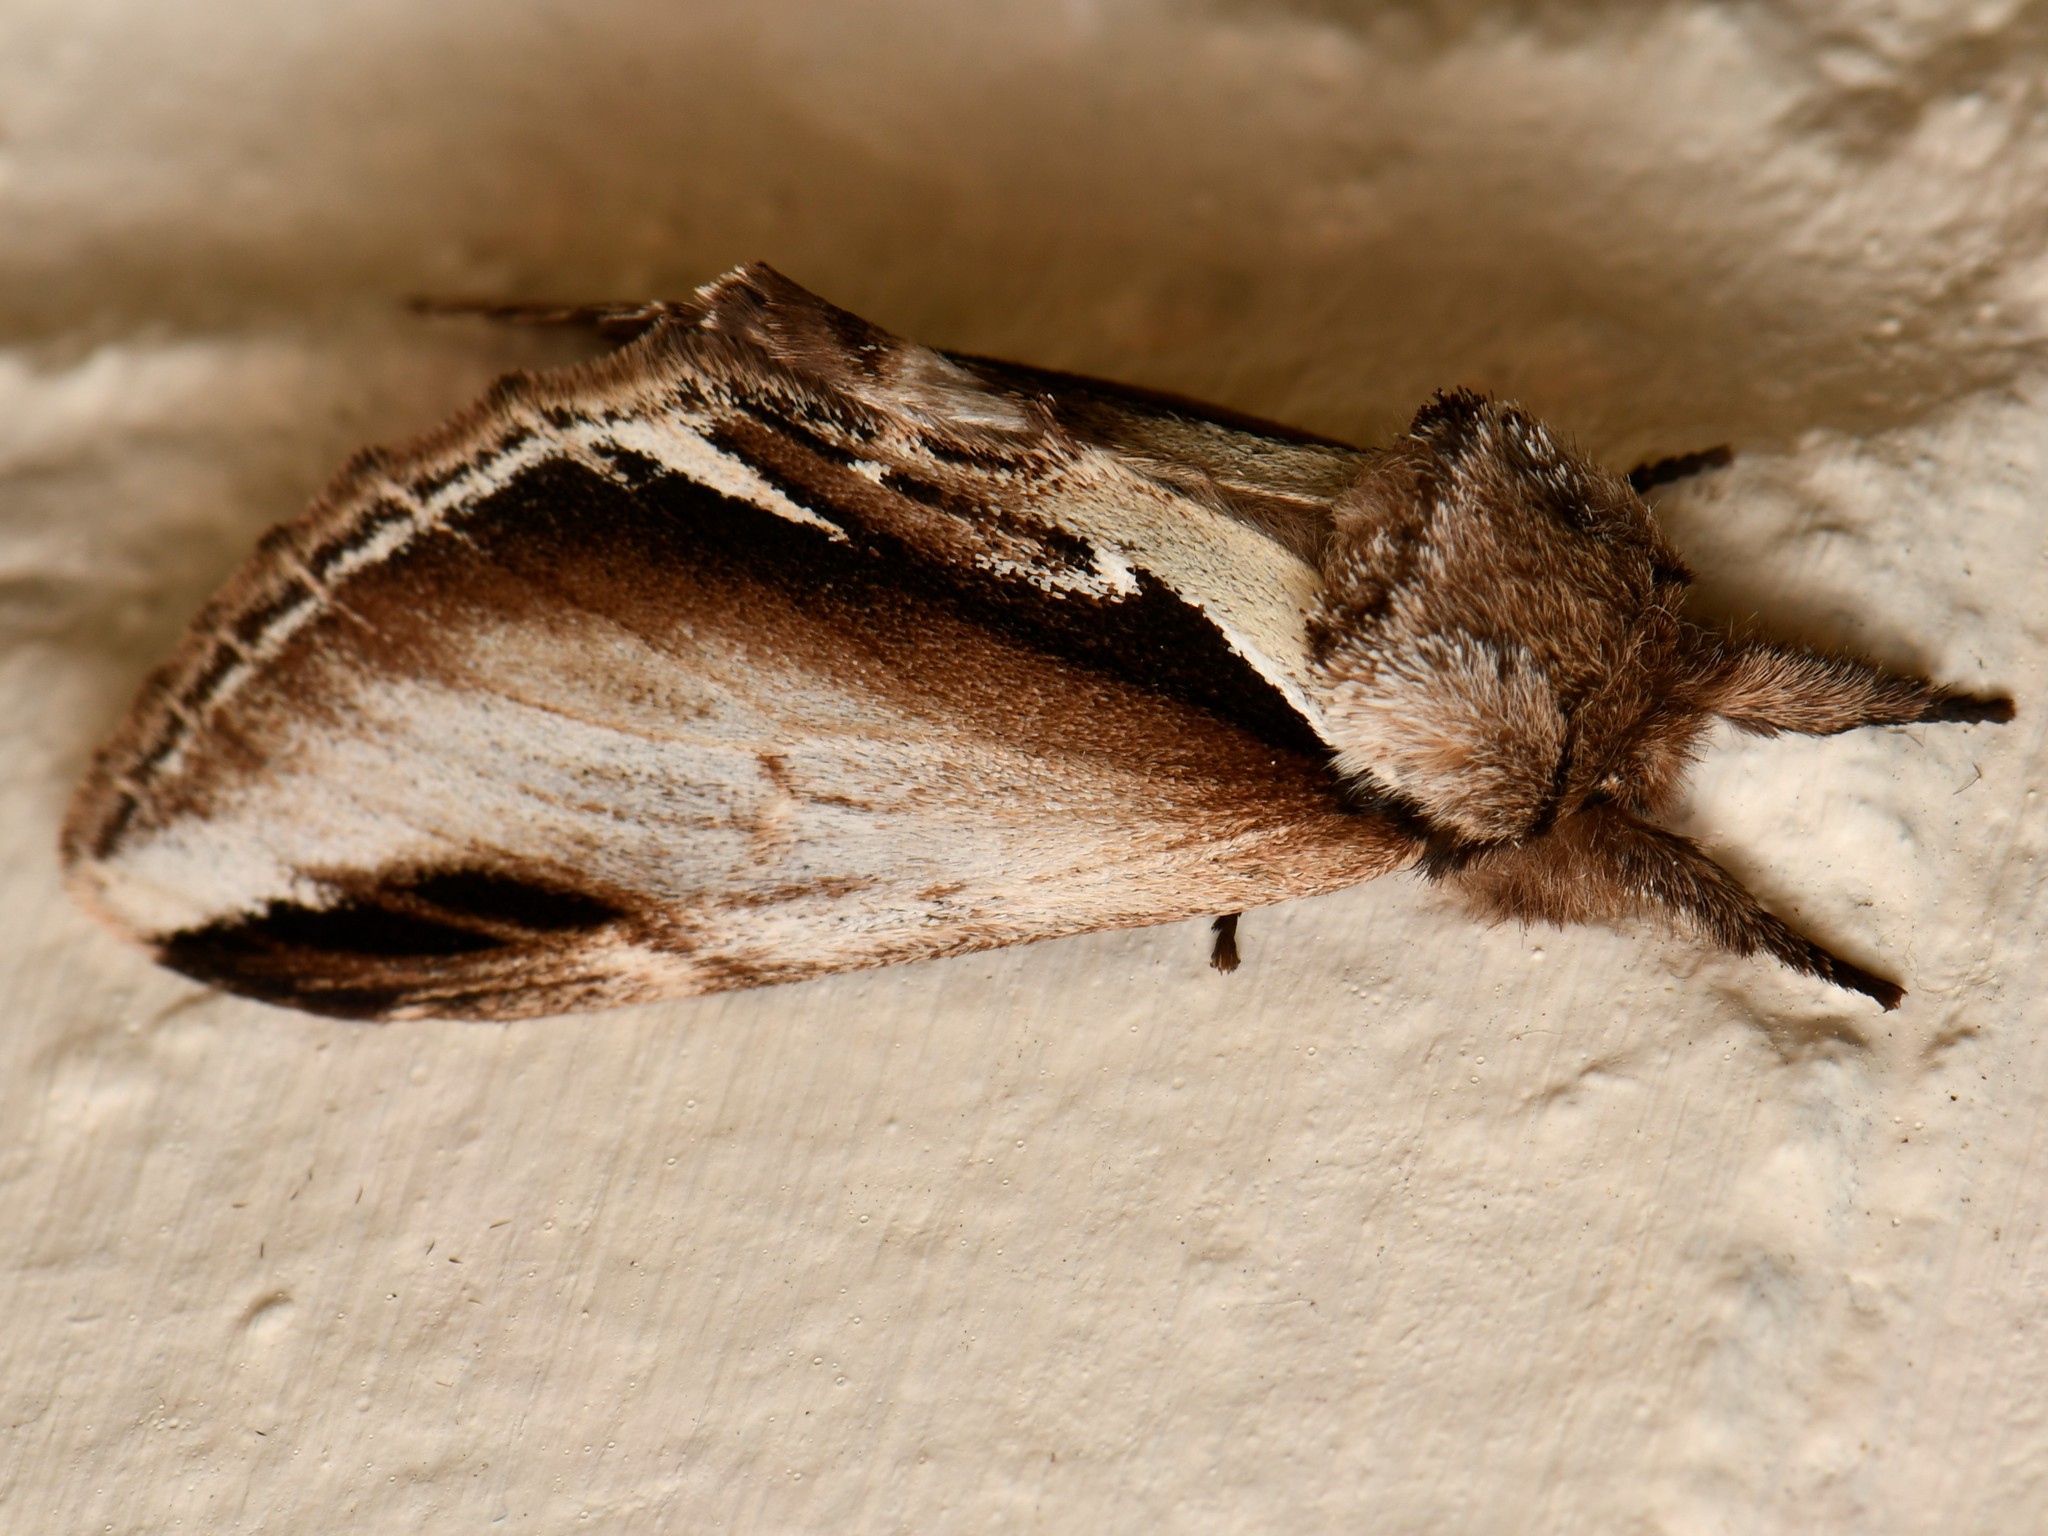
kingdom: Animalia
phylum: Arthropoda
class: Insecta
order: Lepidoptera
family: Notodontidae
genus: Pheosia
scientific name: Pheosia gnoma
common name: Lesser swallow prominent
